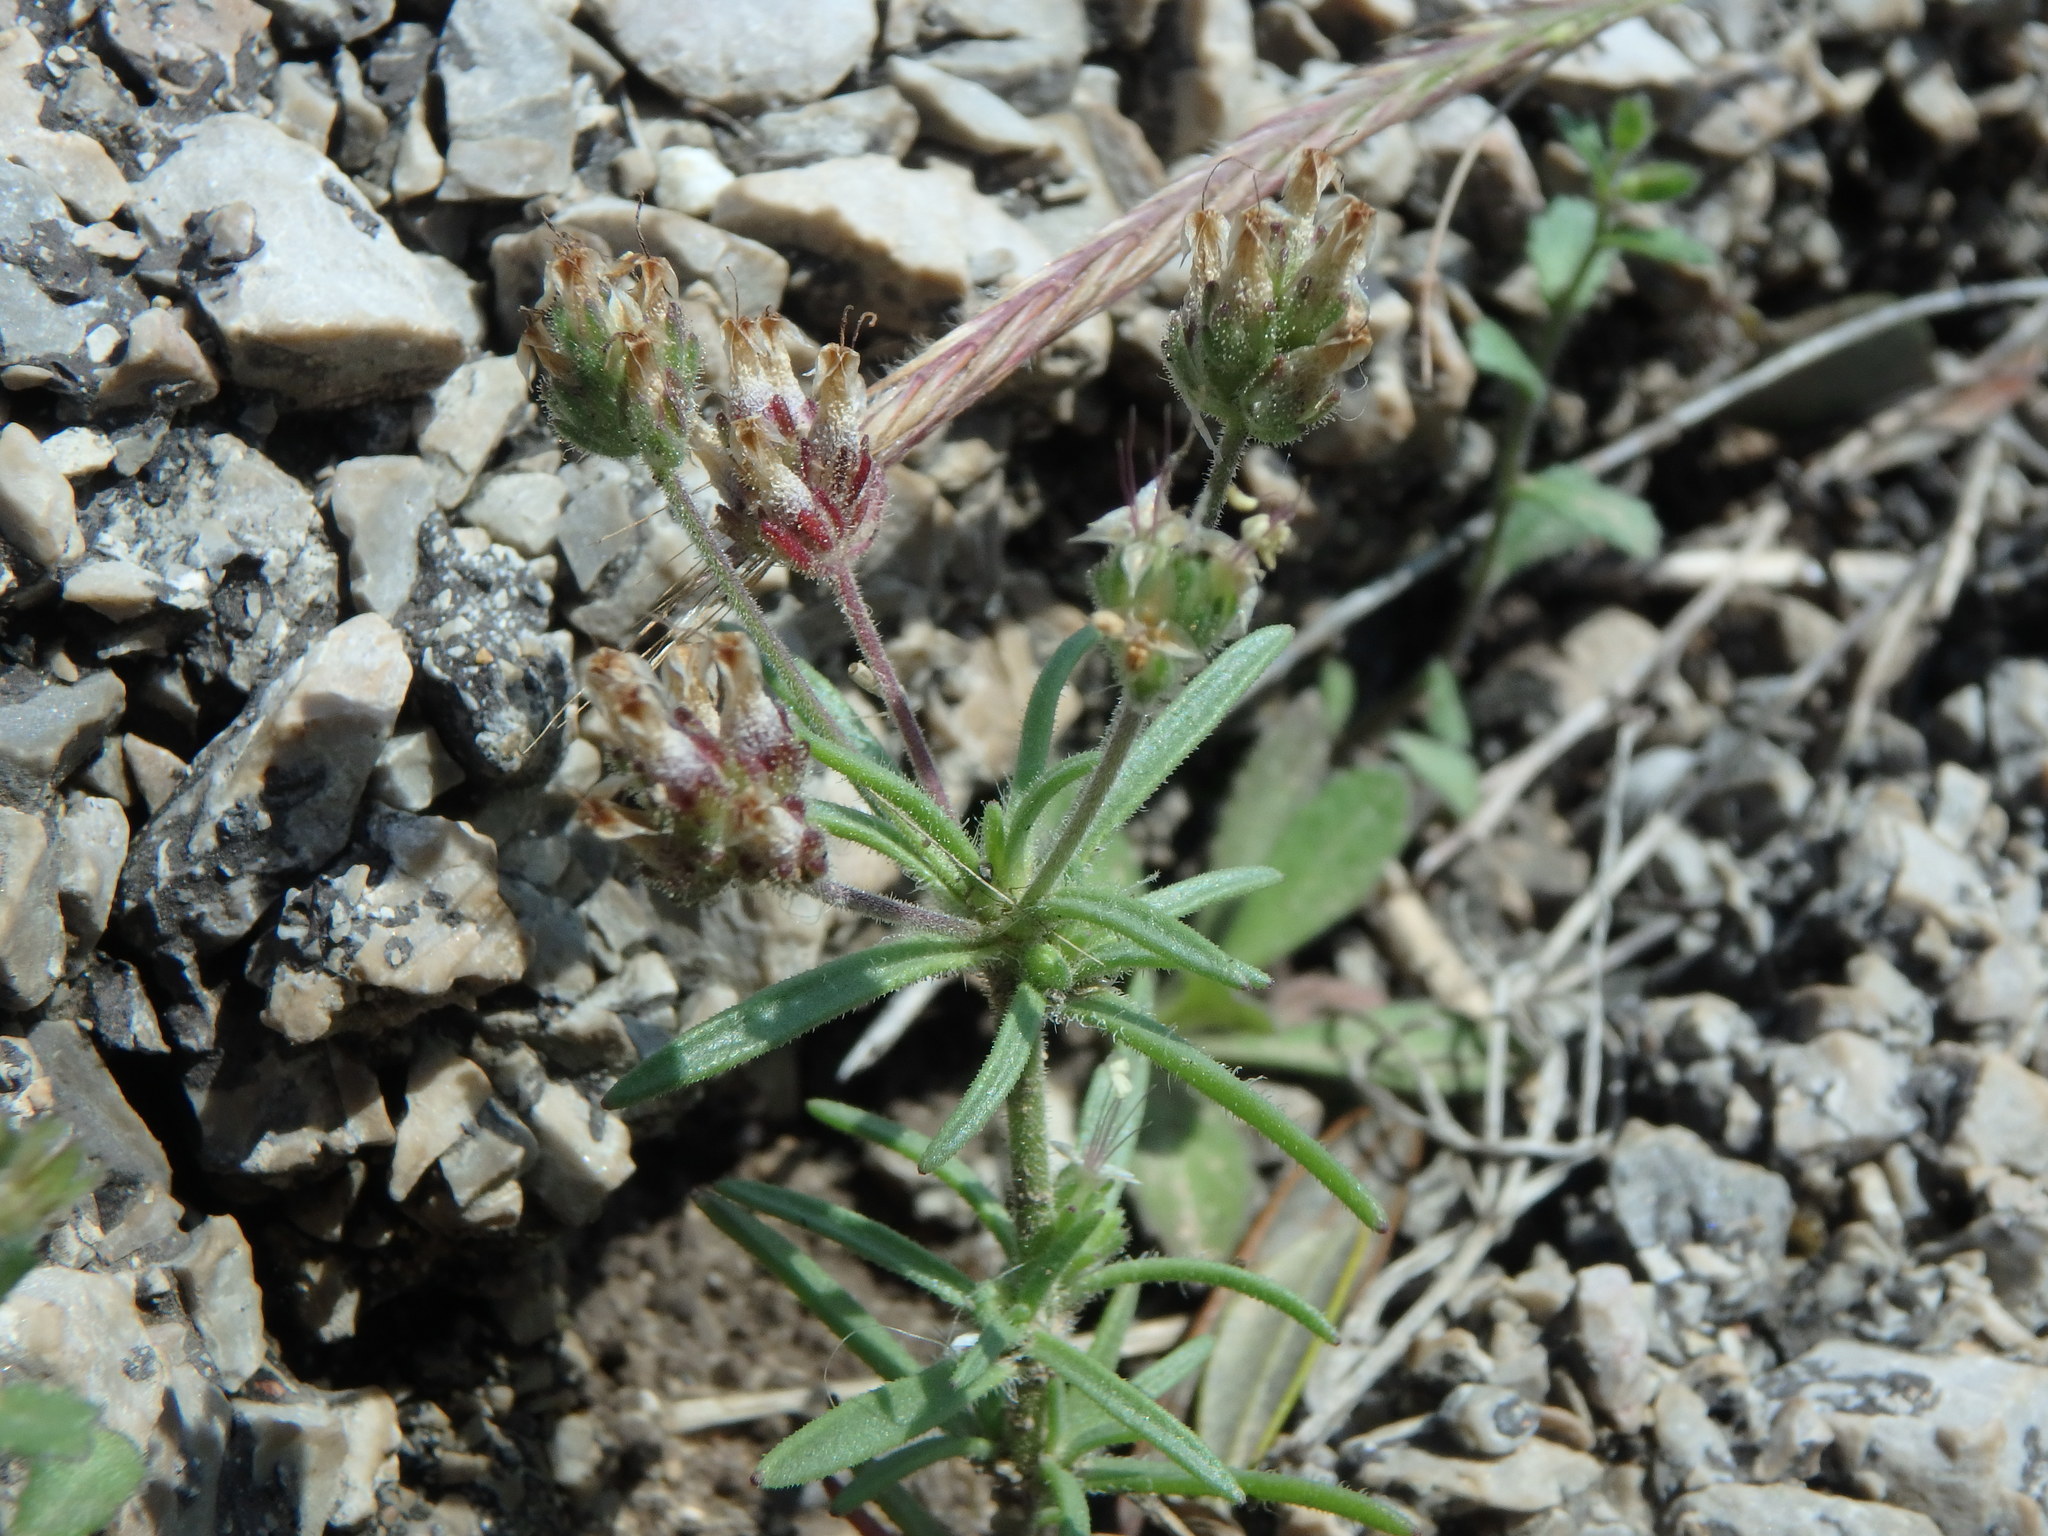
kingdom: Plantae
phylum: Tracheophyta
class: Magnoliopsida
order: Lamiales
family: Plantaginaceae
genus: Misopates
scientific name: Misopates orontium
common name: Weasel's-snout
